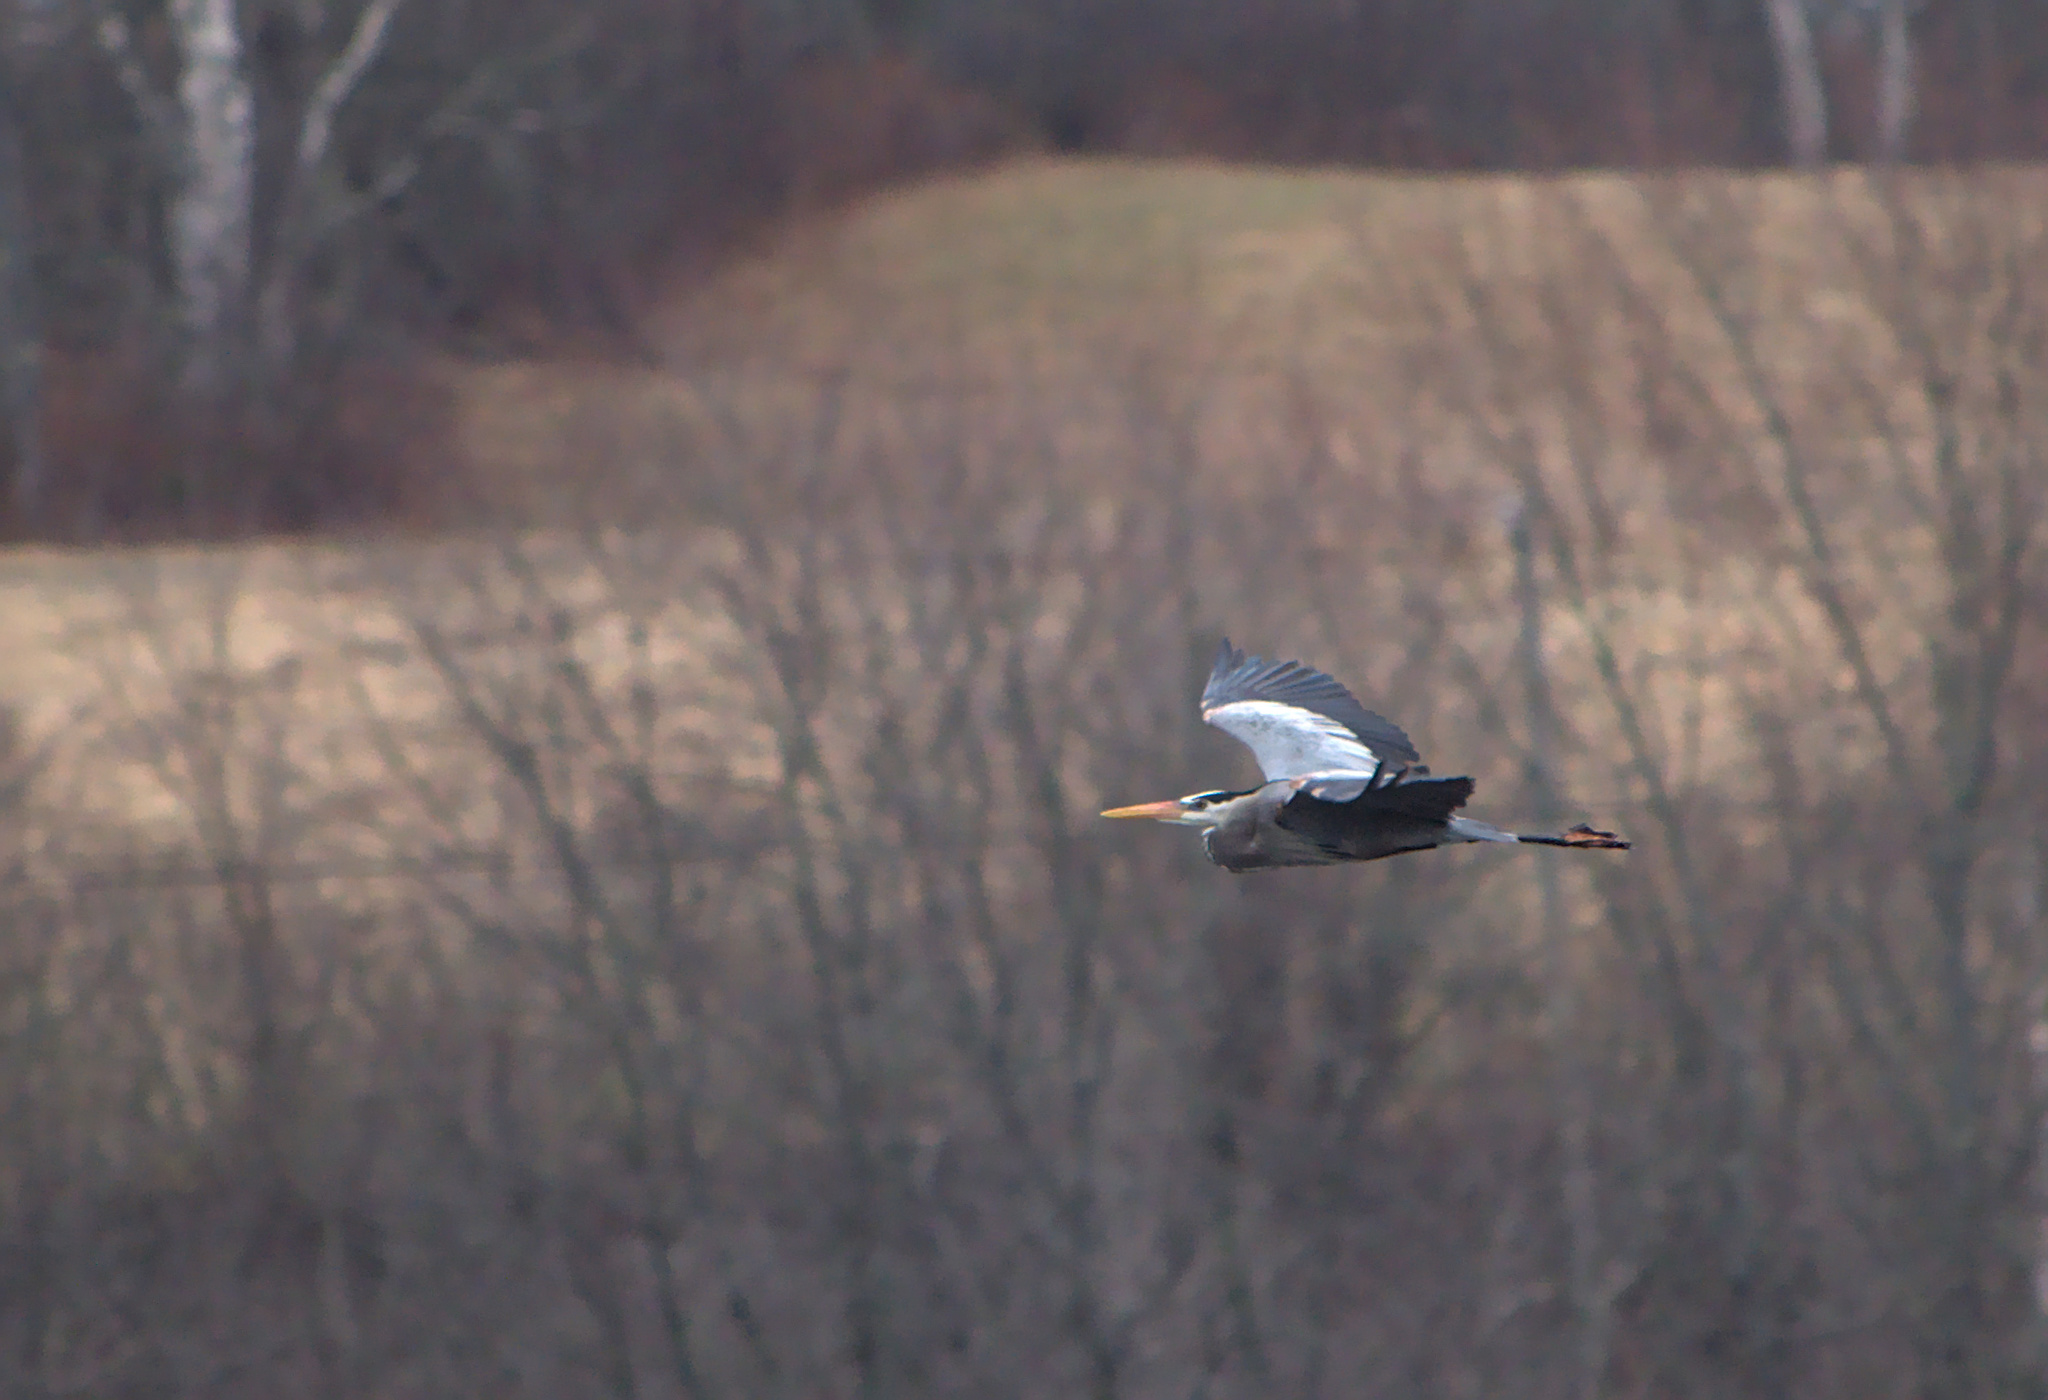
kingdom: Animalia
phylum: Chordata
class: Aves
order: Pelecaniformes
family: Ardeidae
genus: Ardea
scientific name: Ardea herodias
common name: Great blue heron
